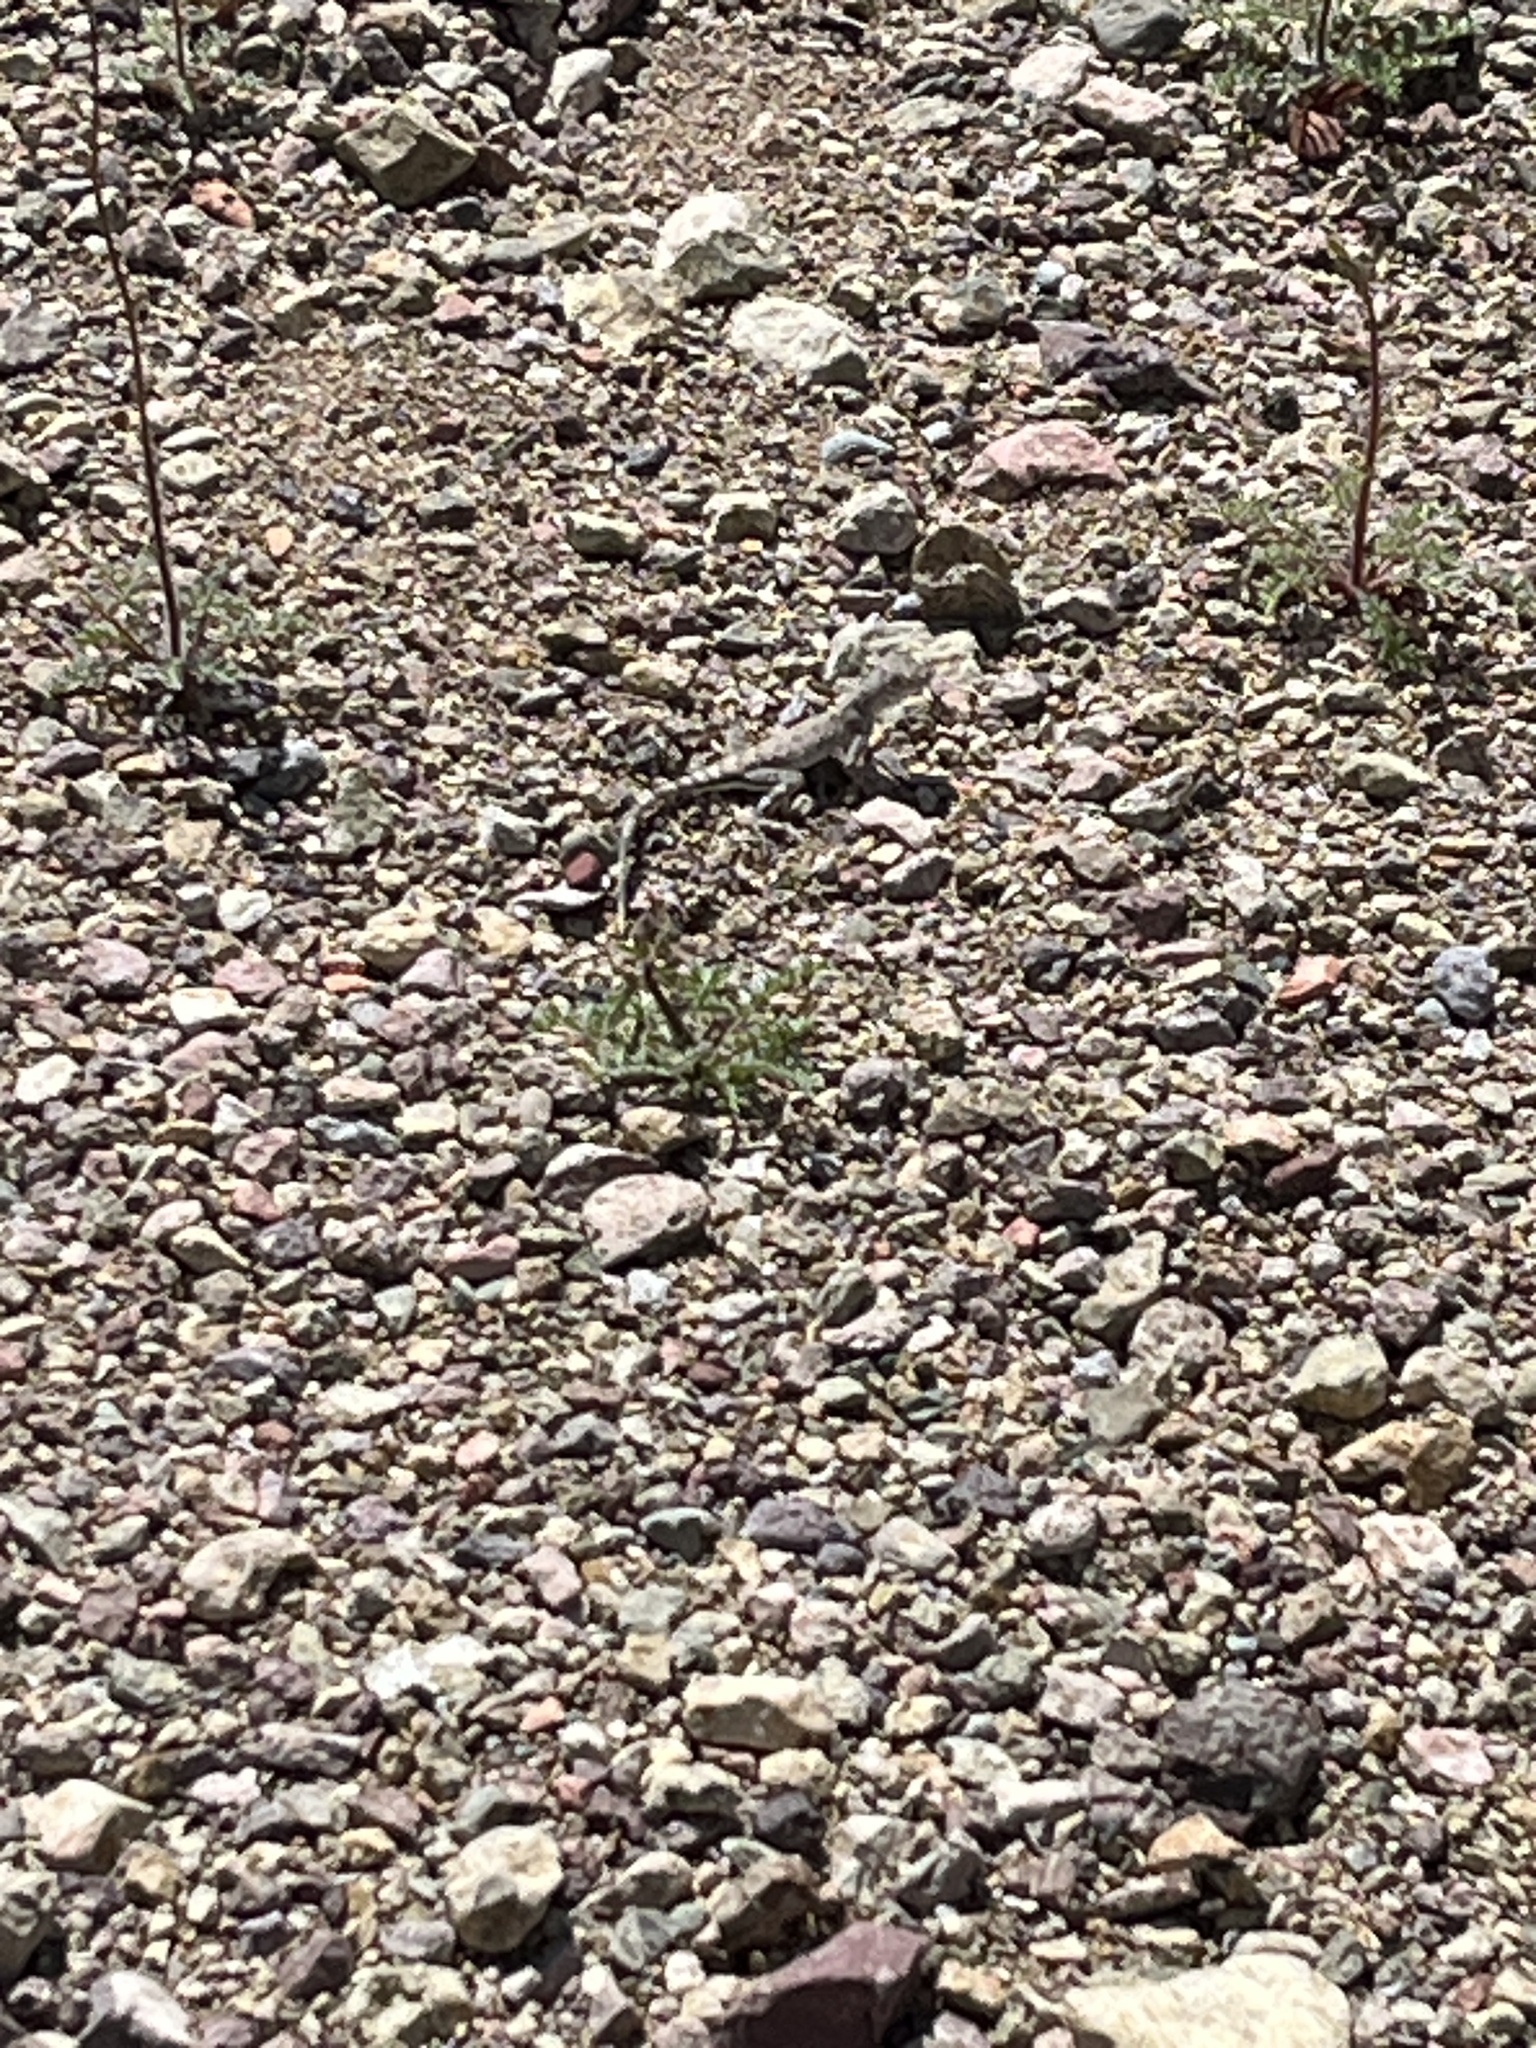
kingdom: Animalia
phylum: Chordata
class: Squamata
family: Phrynosomatidae
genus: Callisaurus
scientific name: Callisaurus draconoides
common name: Zebra-tailed lizard
